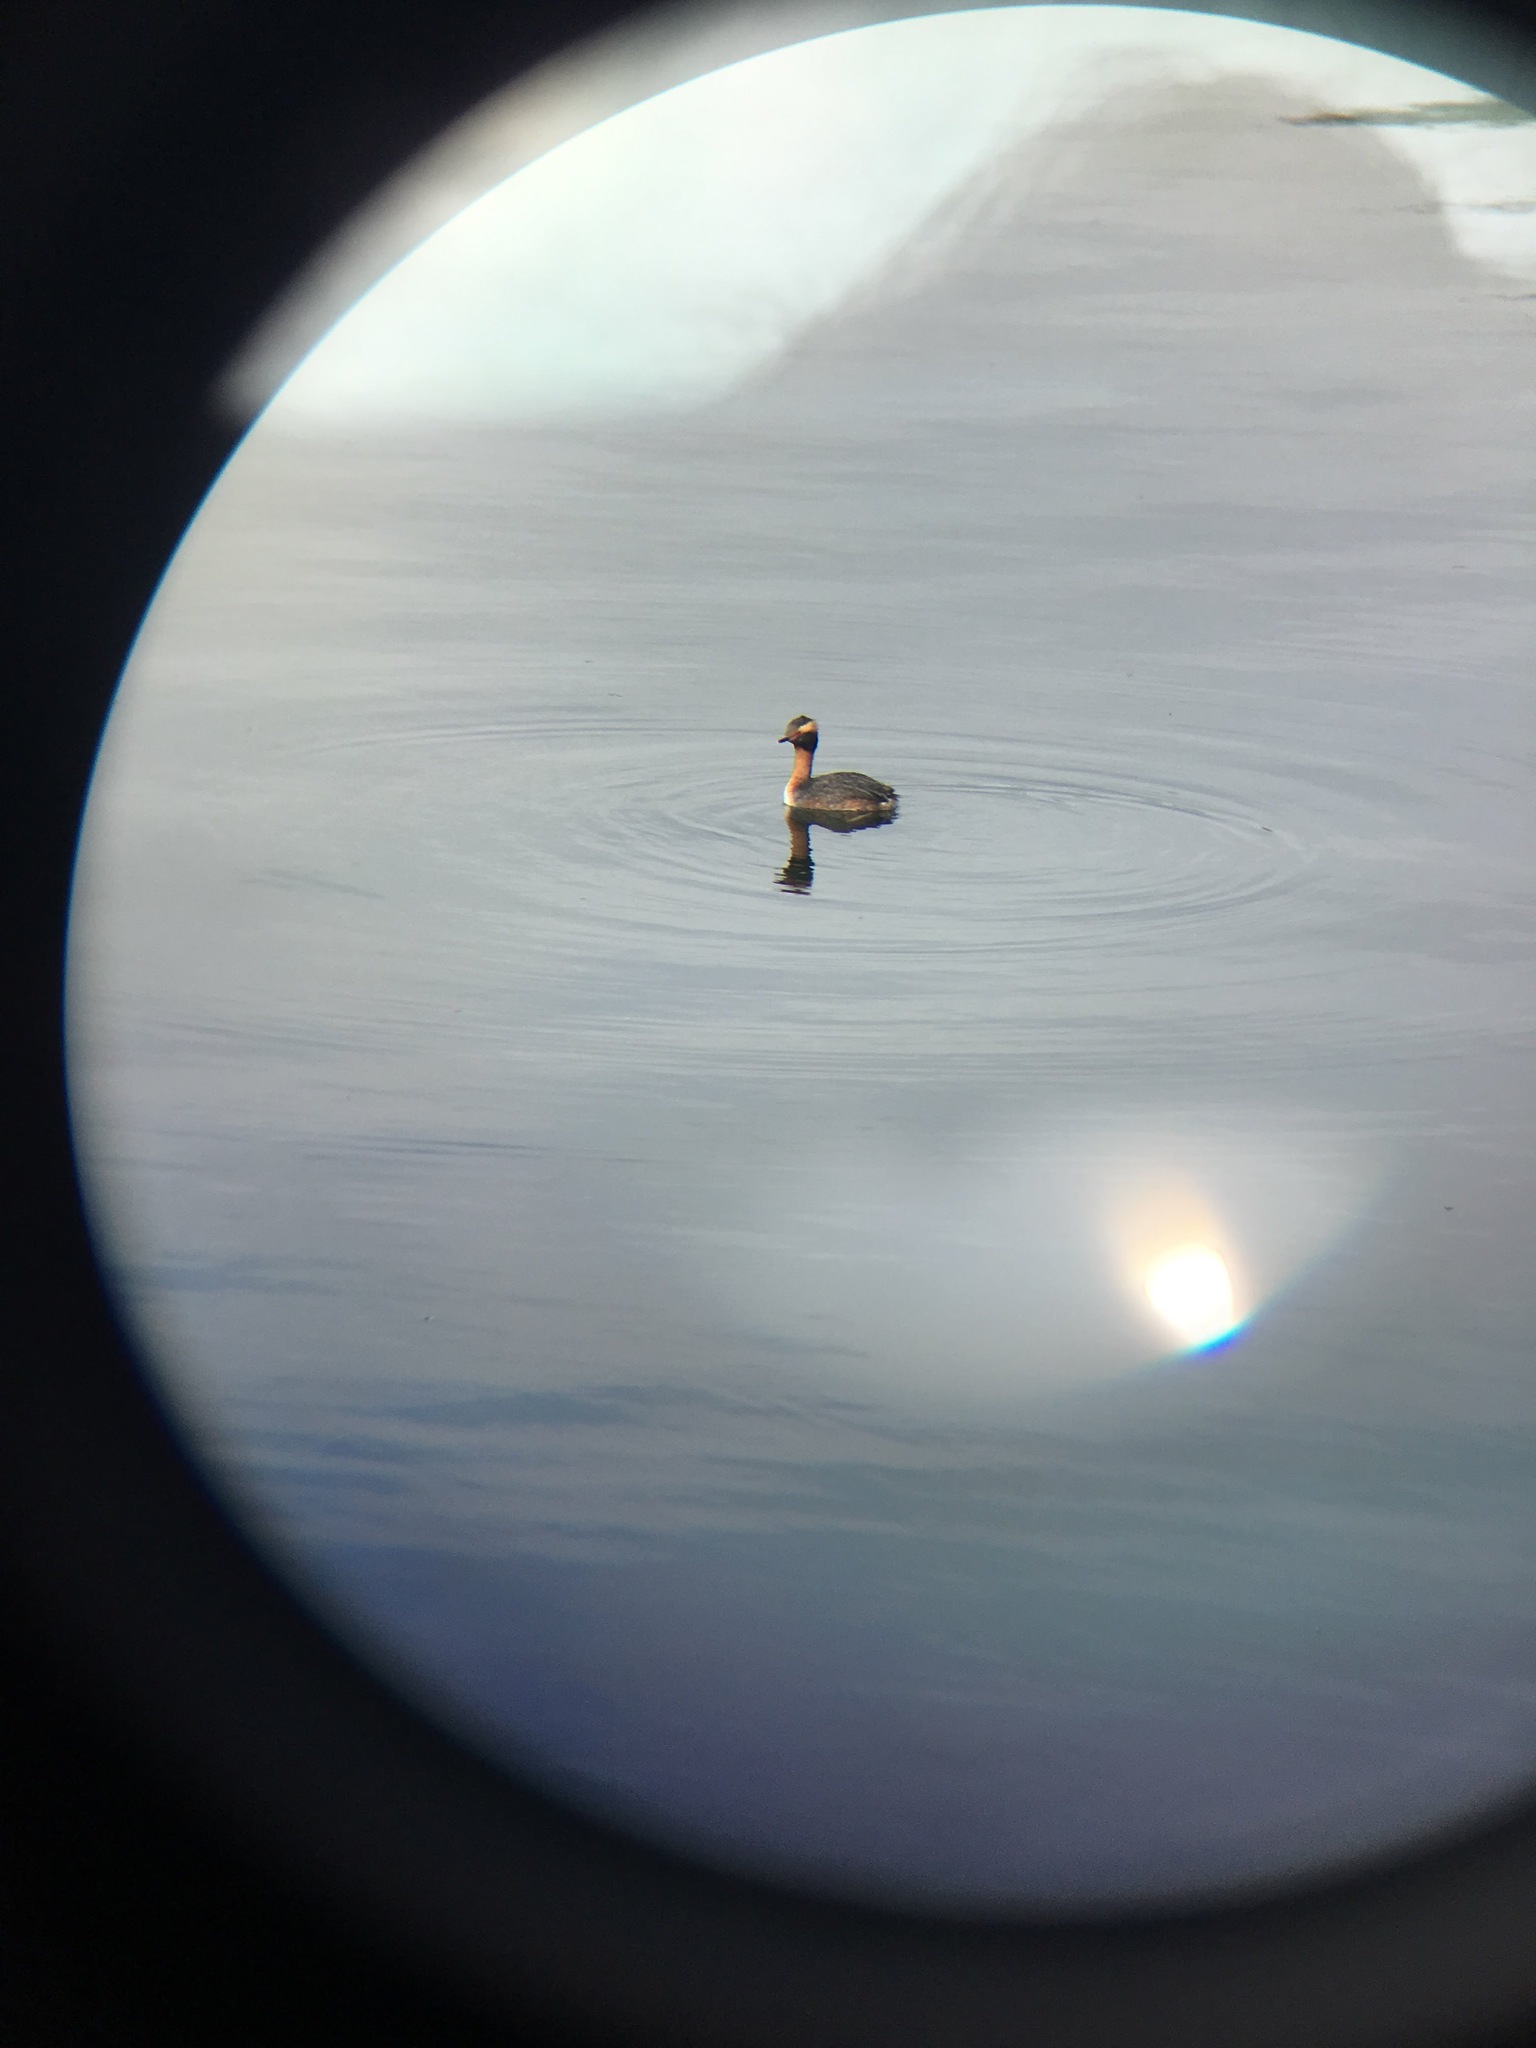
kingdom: Animalia
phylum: Chordata
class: Aves
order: Podicipediformes
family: Podicipedidae
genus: Podiceps
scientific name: Podiceps auritus
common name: Horned grebe
